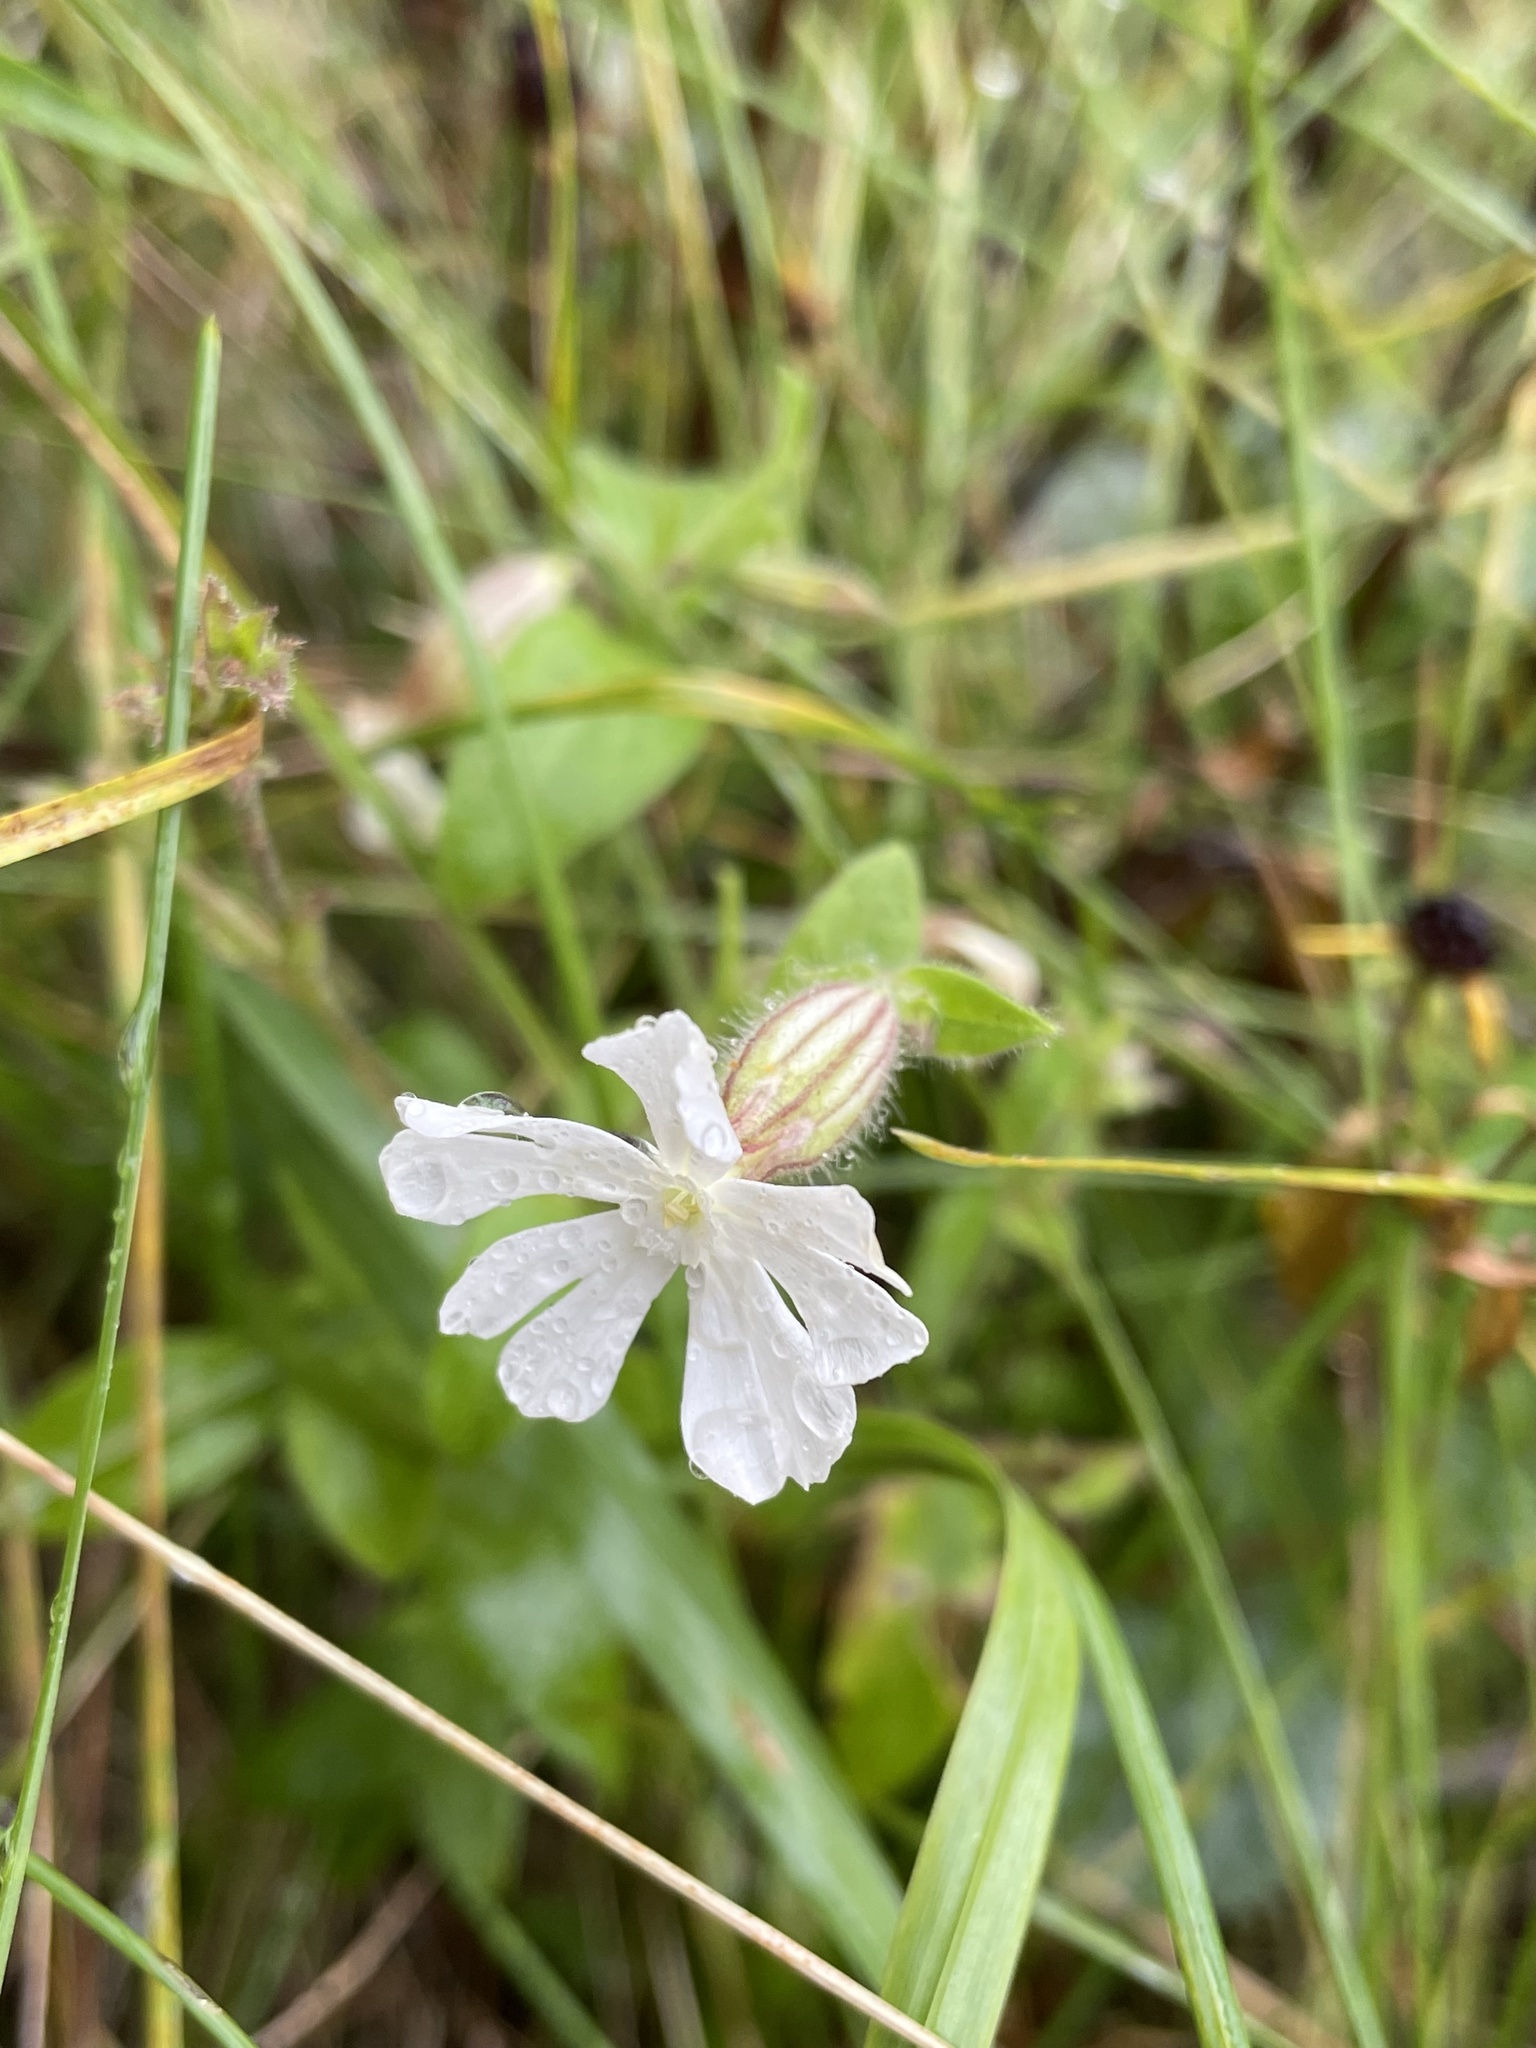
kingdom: Plantae
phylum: Tracheophyta
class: Magnoliopsida
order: Caryophyllales
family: Caryophyllaceae
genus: Silene
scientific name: Silene latifolia
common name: White campion
